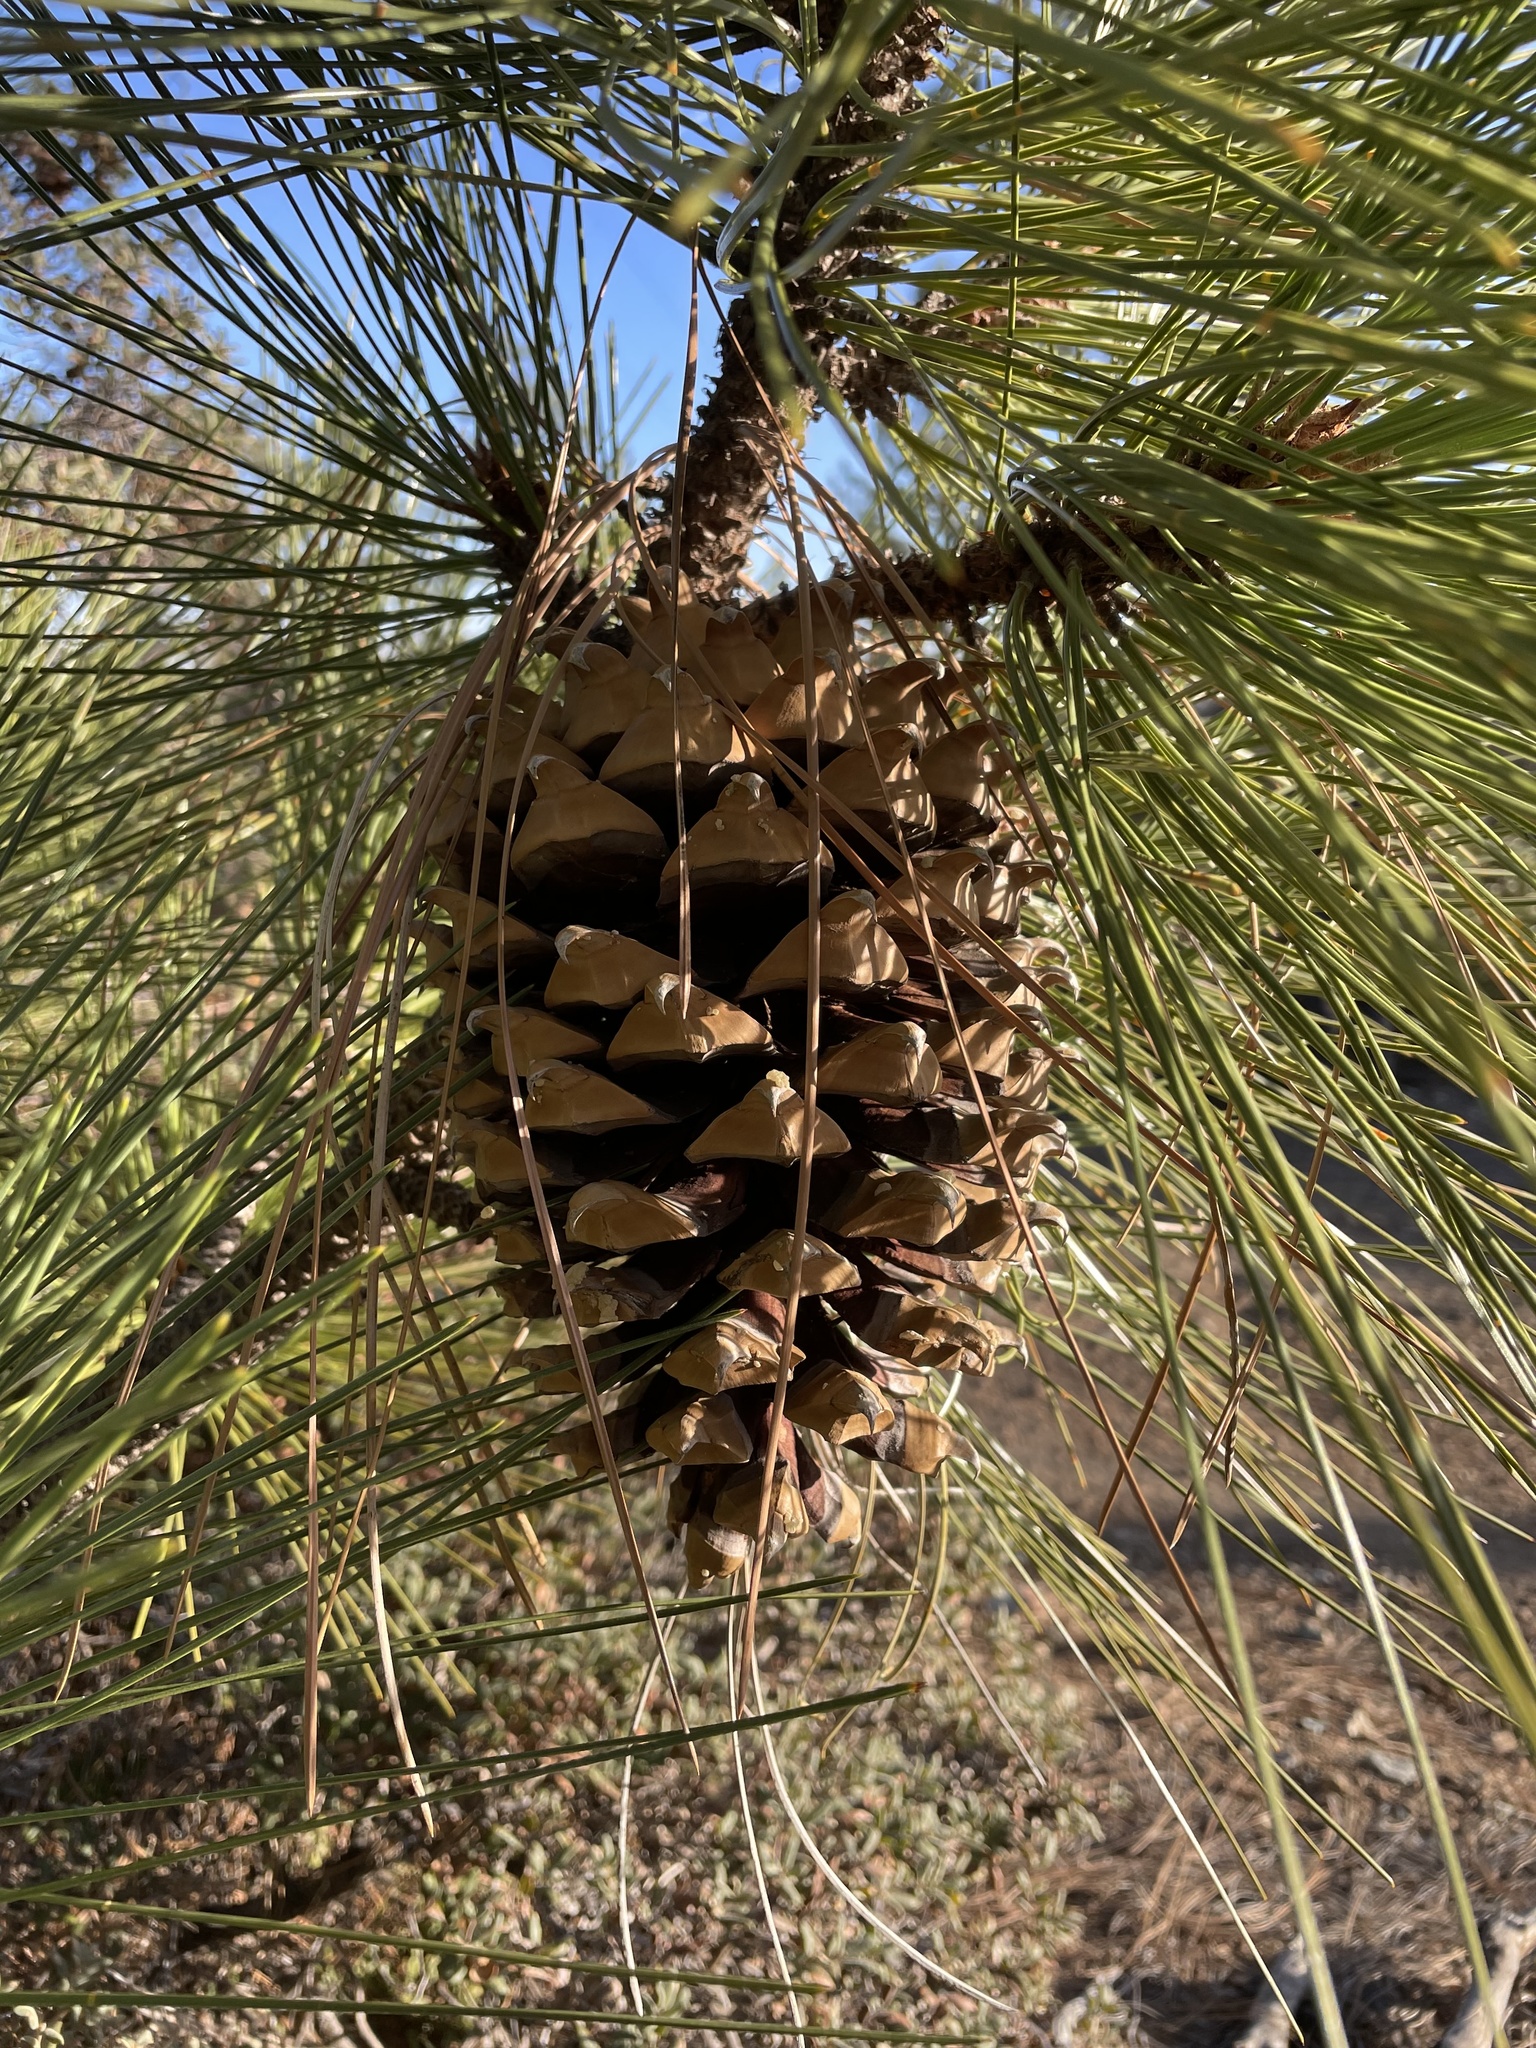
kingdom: Plantae
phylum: Tracheophyta
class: Pinopsida
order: Pinales
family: Pinaceae
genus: Pinus
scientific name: Pinus coulteri
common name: Coulter pine
